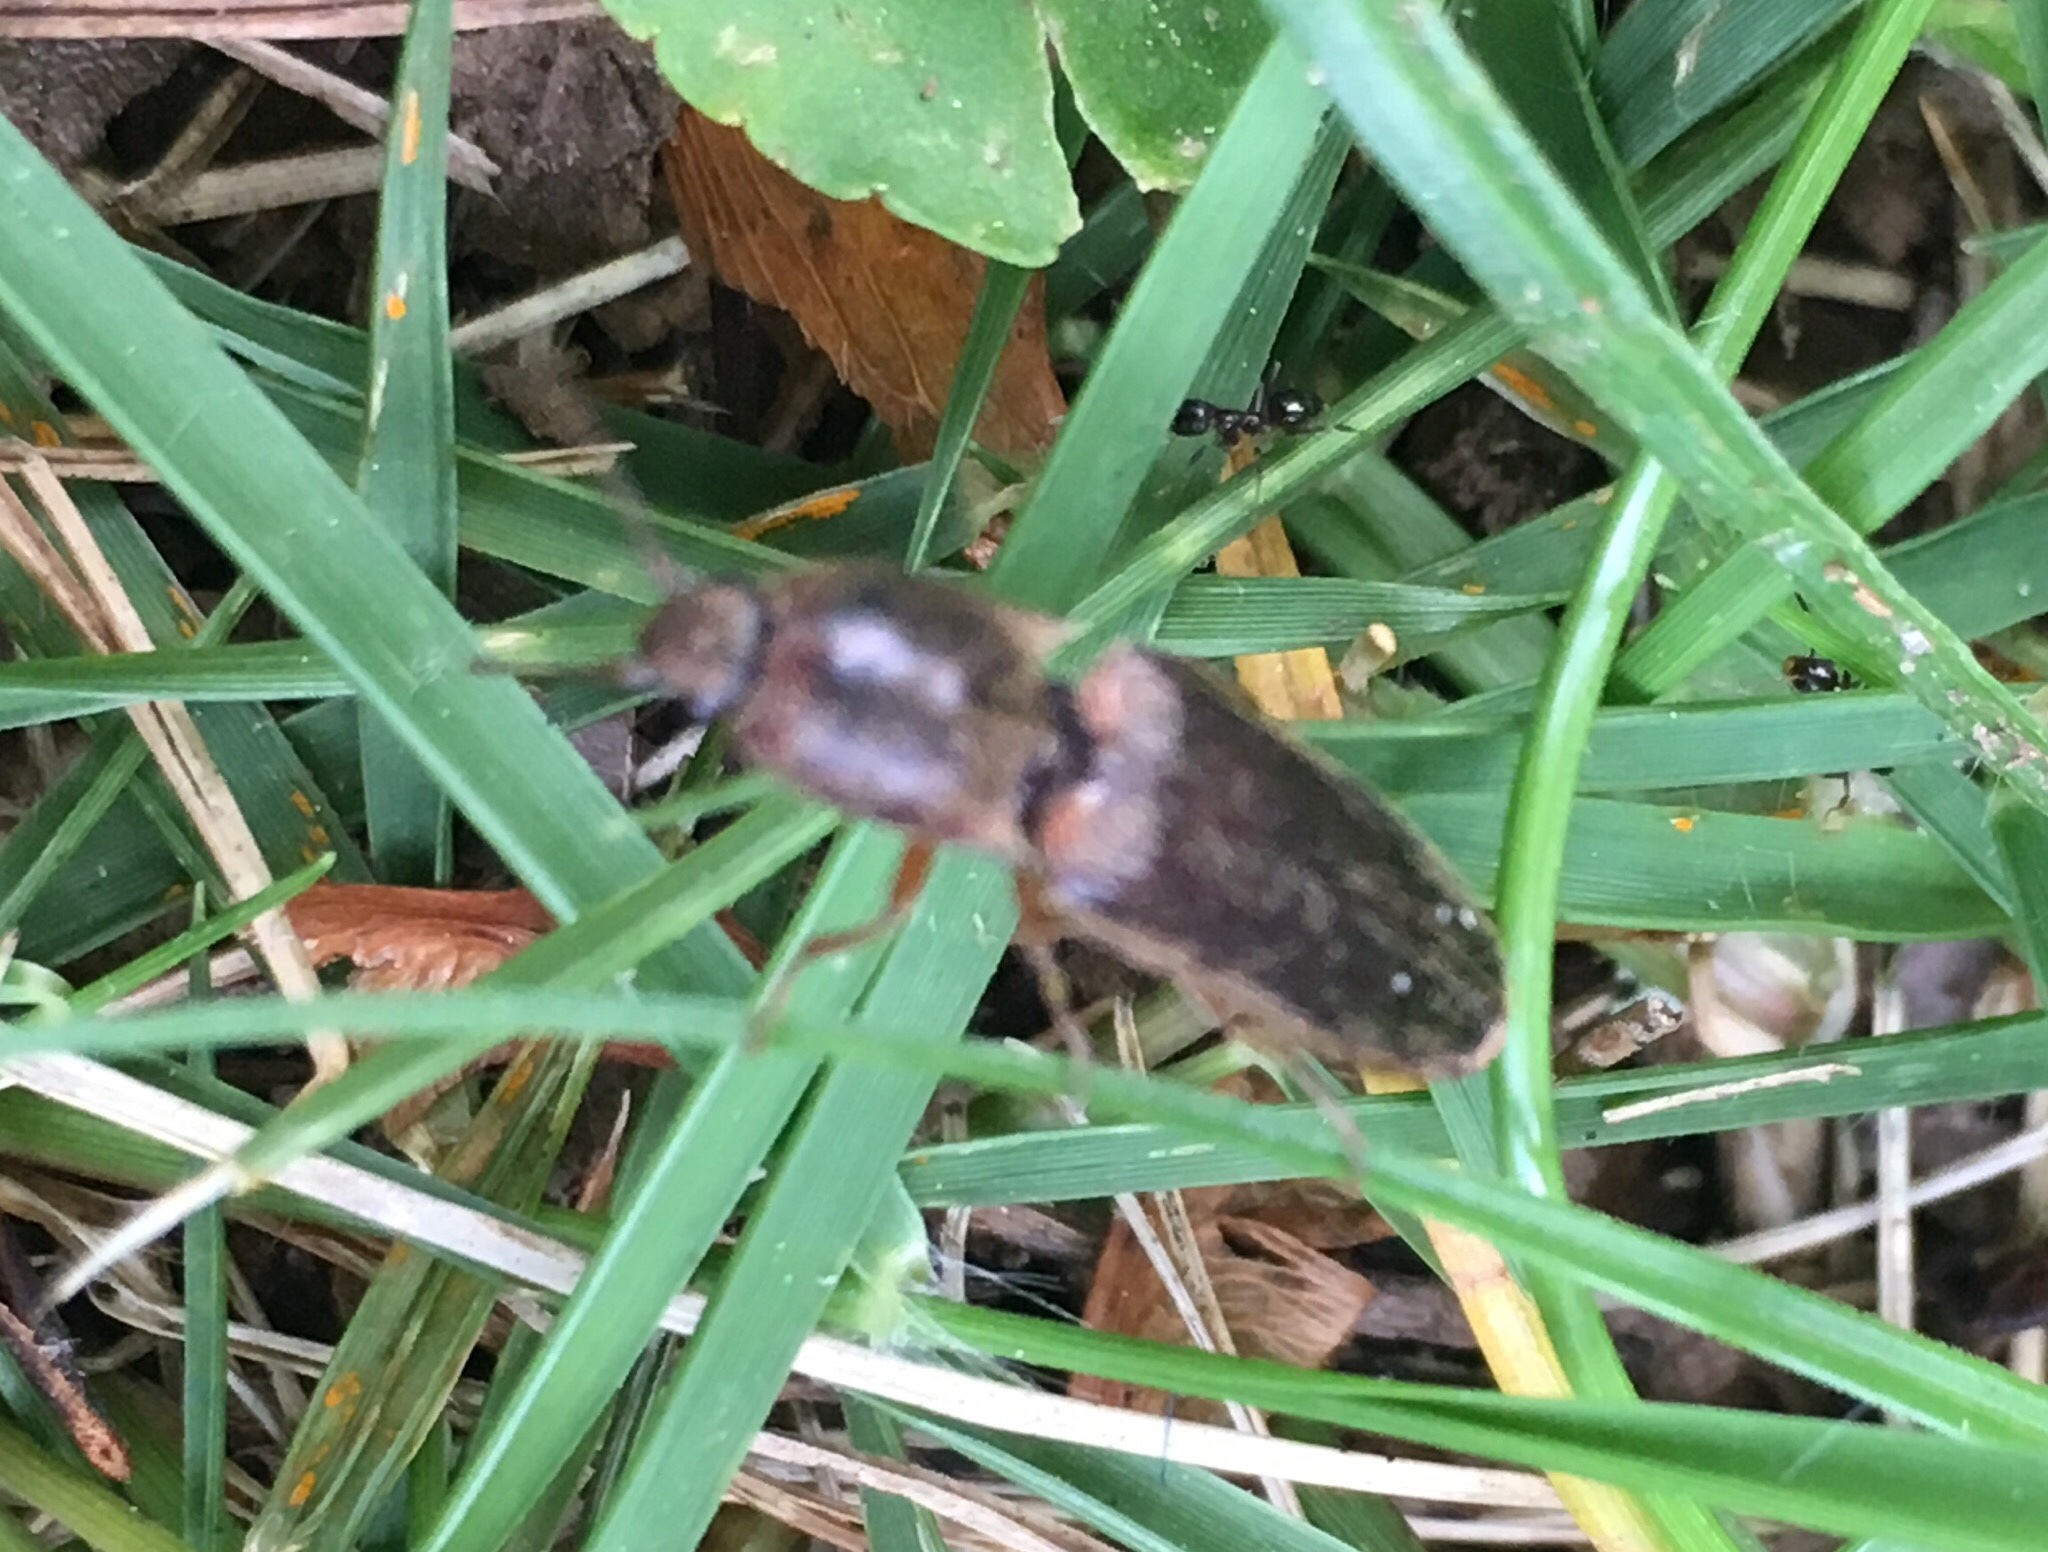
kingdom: Animalia
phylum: Arthropoda
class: Insecta
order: Coleoptera
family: Elateridae
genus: Gambrinus
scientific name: Gambrinus griseus
